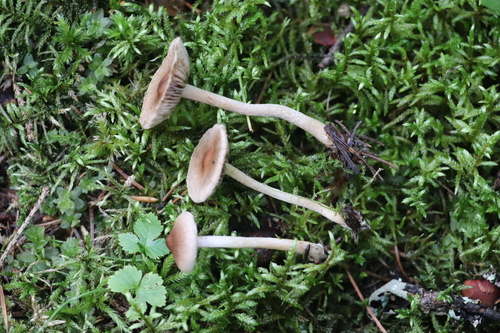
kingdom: Fungi
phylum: Basidiomycota
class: Agaricomycetes
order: Agaricales
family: Inocybaceae
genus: Inocybe
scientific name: Inocybe
